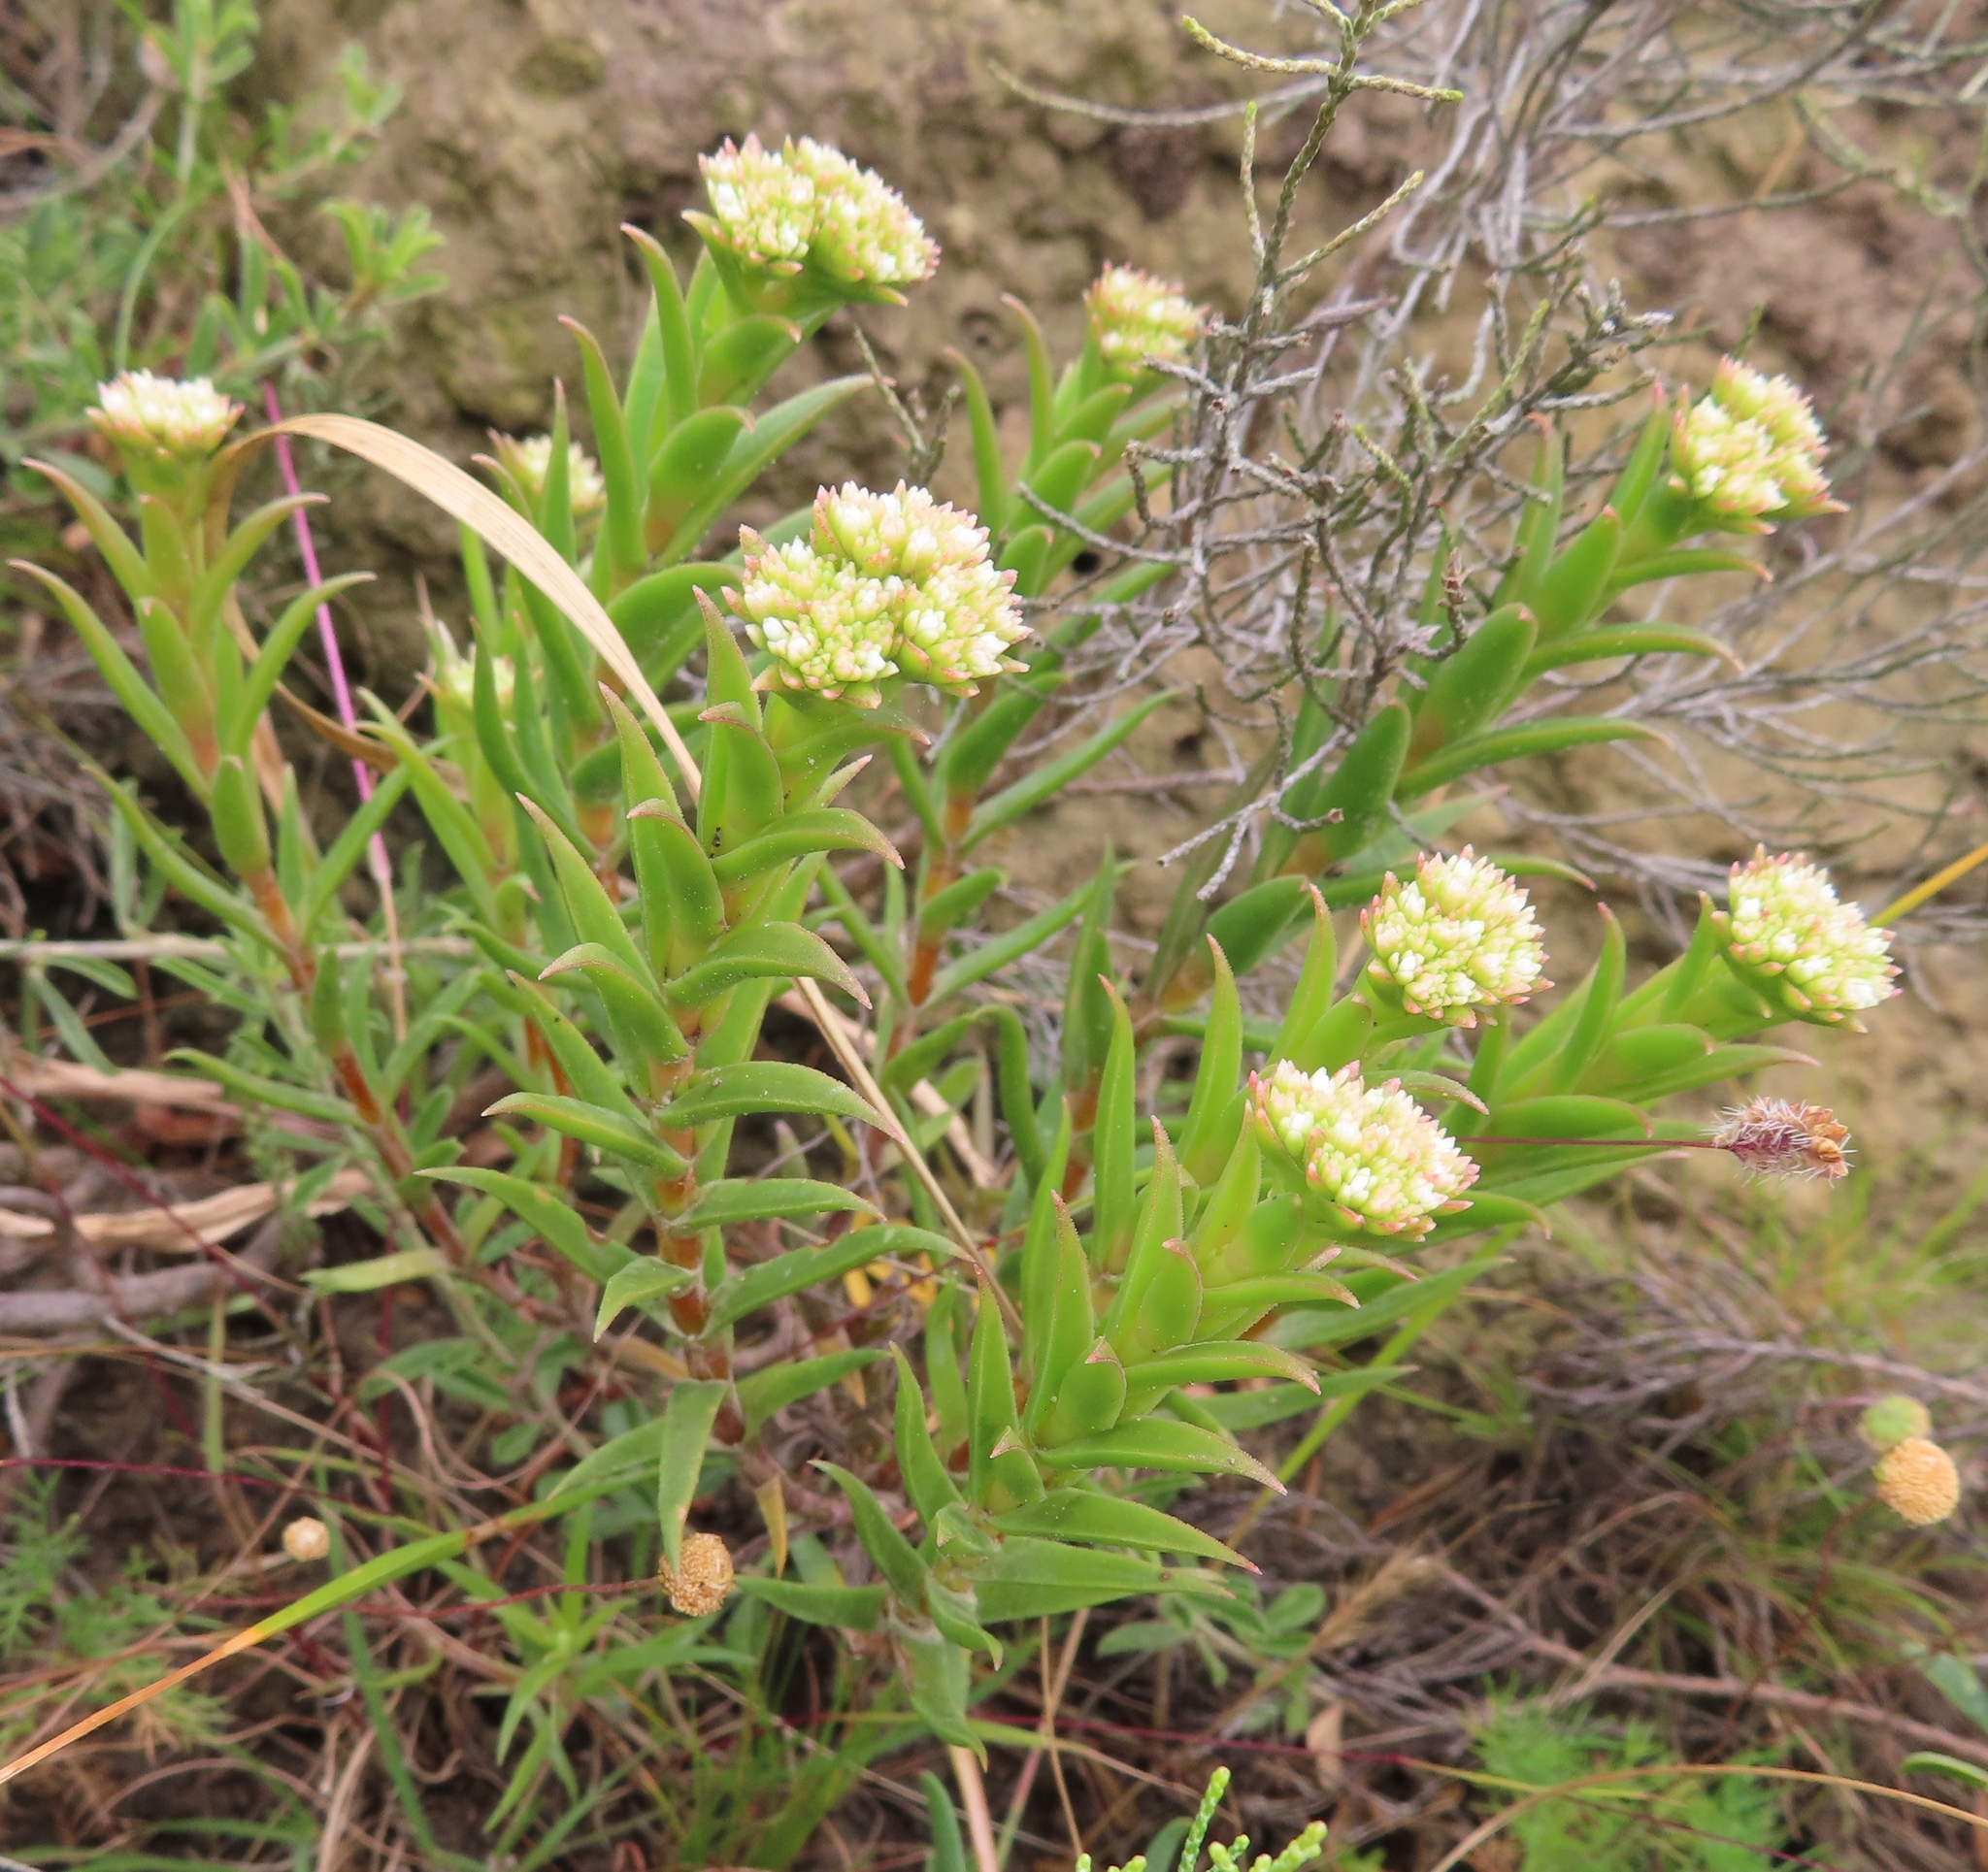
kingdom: Plantae
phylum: Tracheophyta
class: Magnoliopsida
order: Saxifragales
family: Crassulaceae
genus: Crassula
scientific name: Crassula subulata
